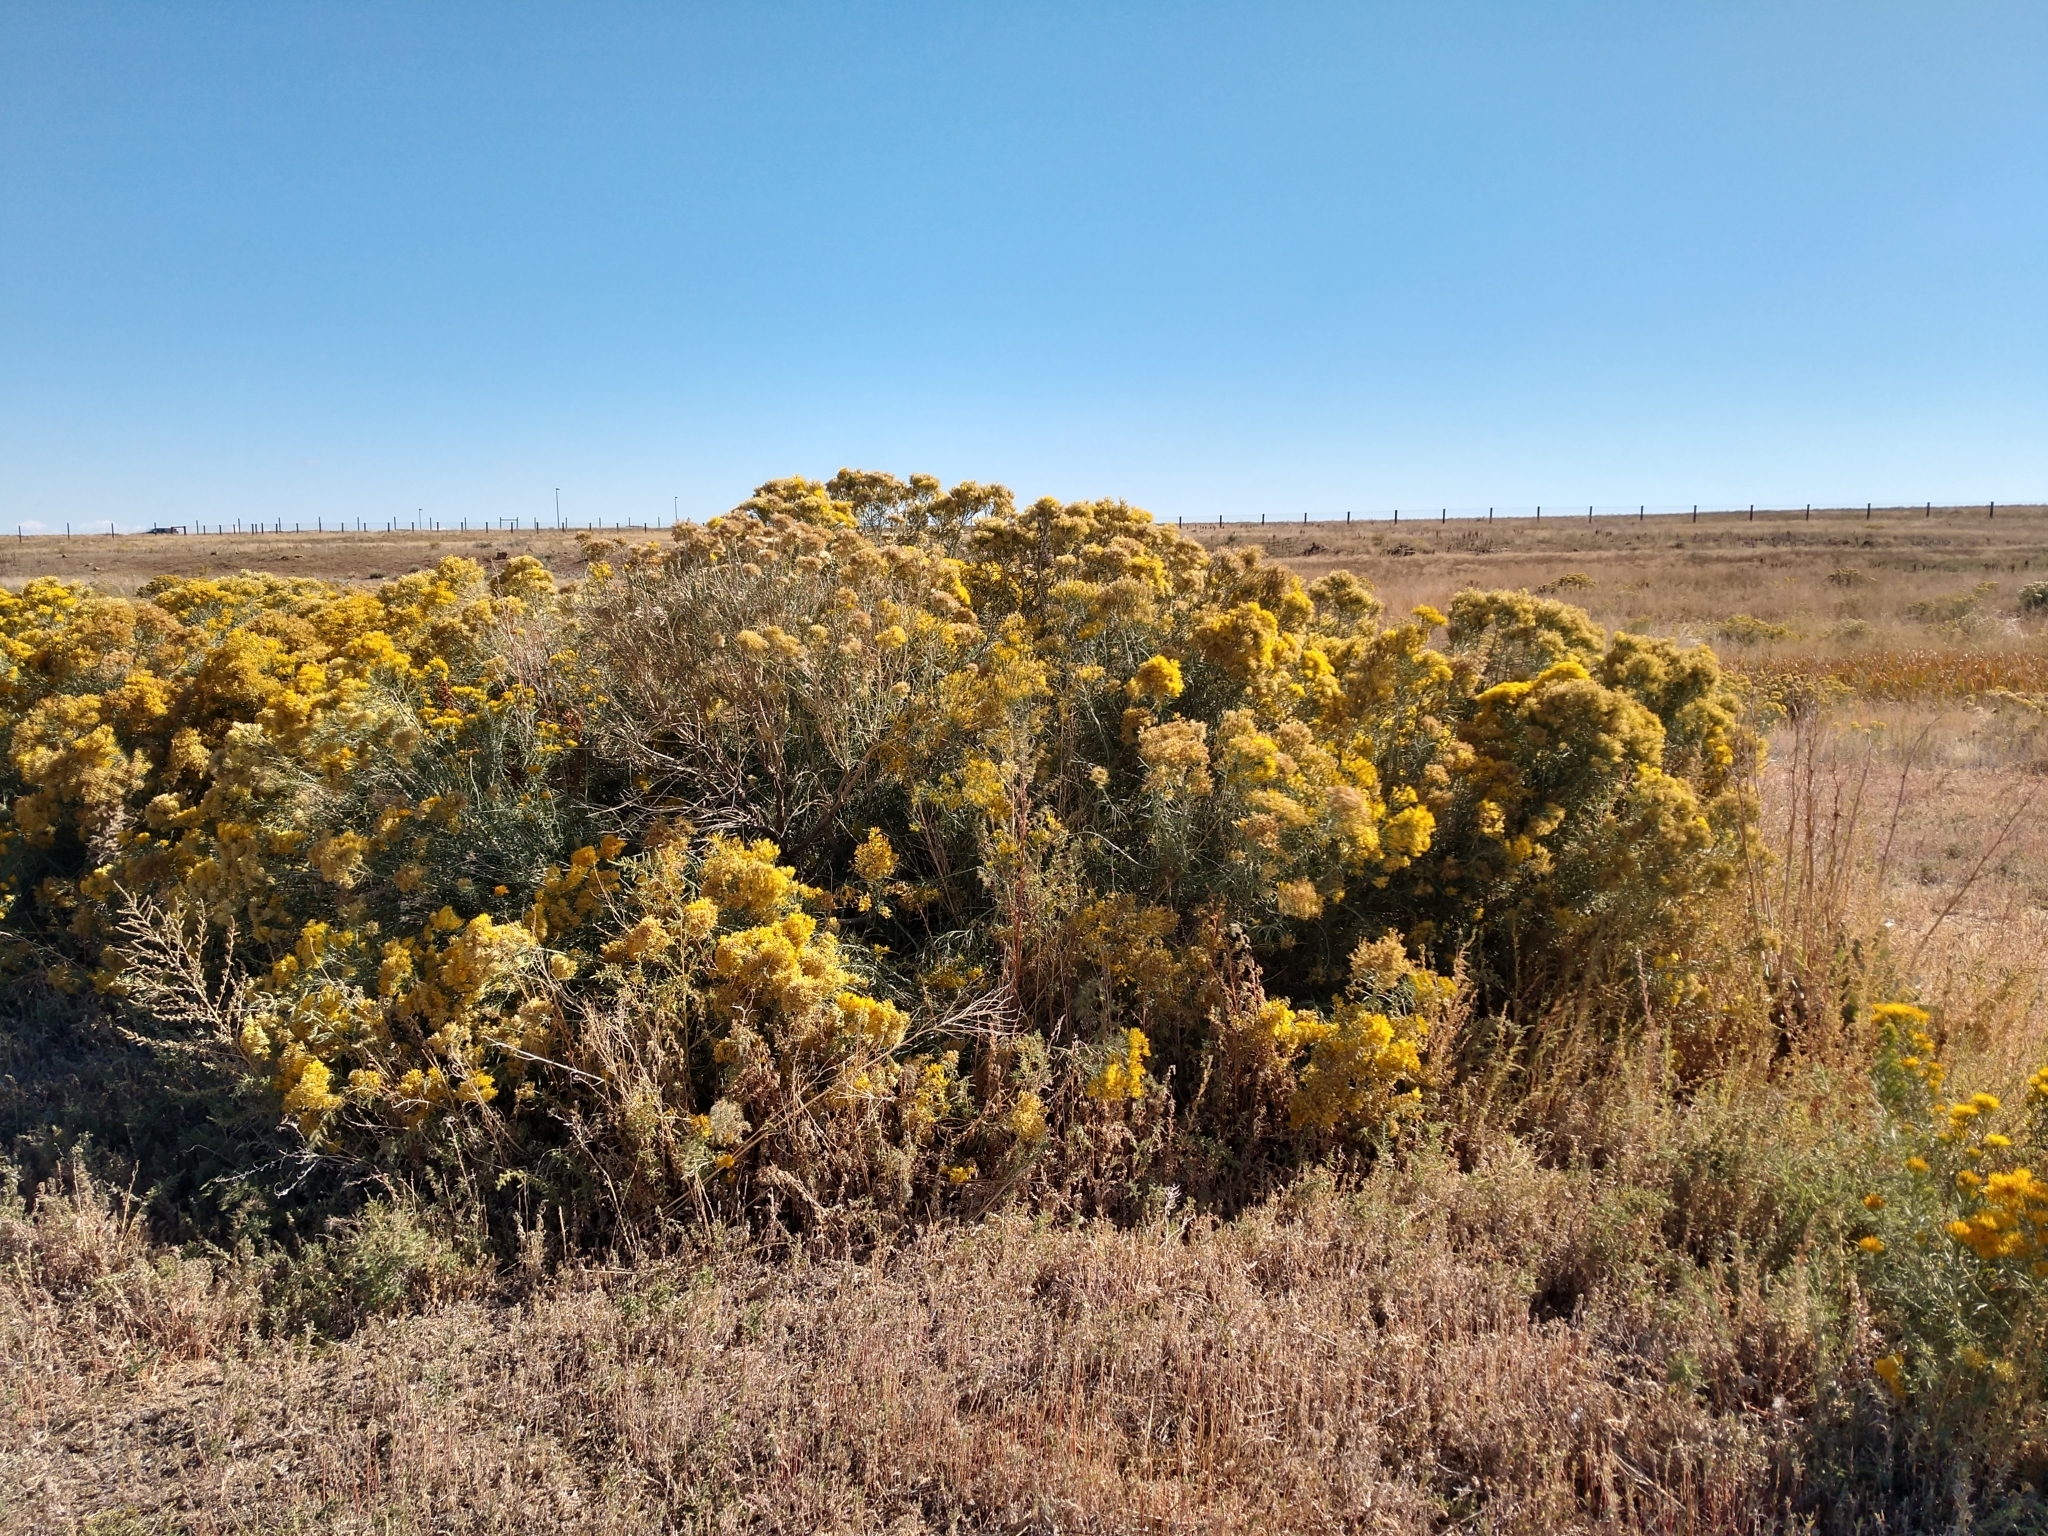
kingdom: Plantae
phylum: Tracheophyta
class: Magnoliopsida
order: Asterales
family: Asteraceae
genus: Ericameria
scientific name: Ericameria nauseosa
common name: Rubber rabbitbrush
